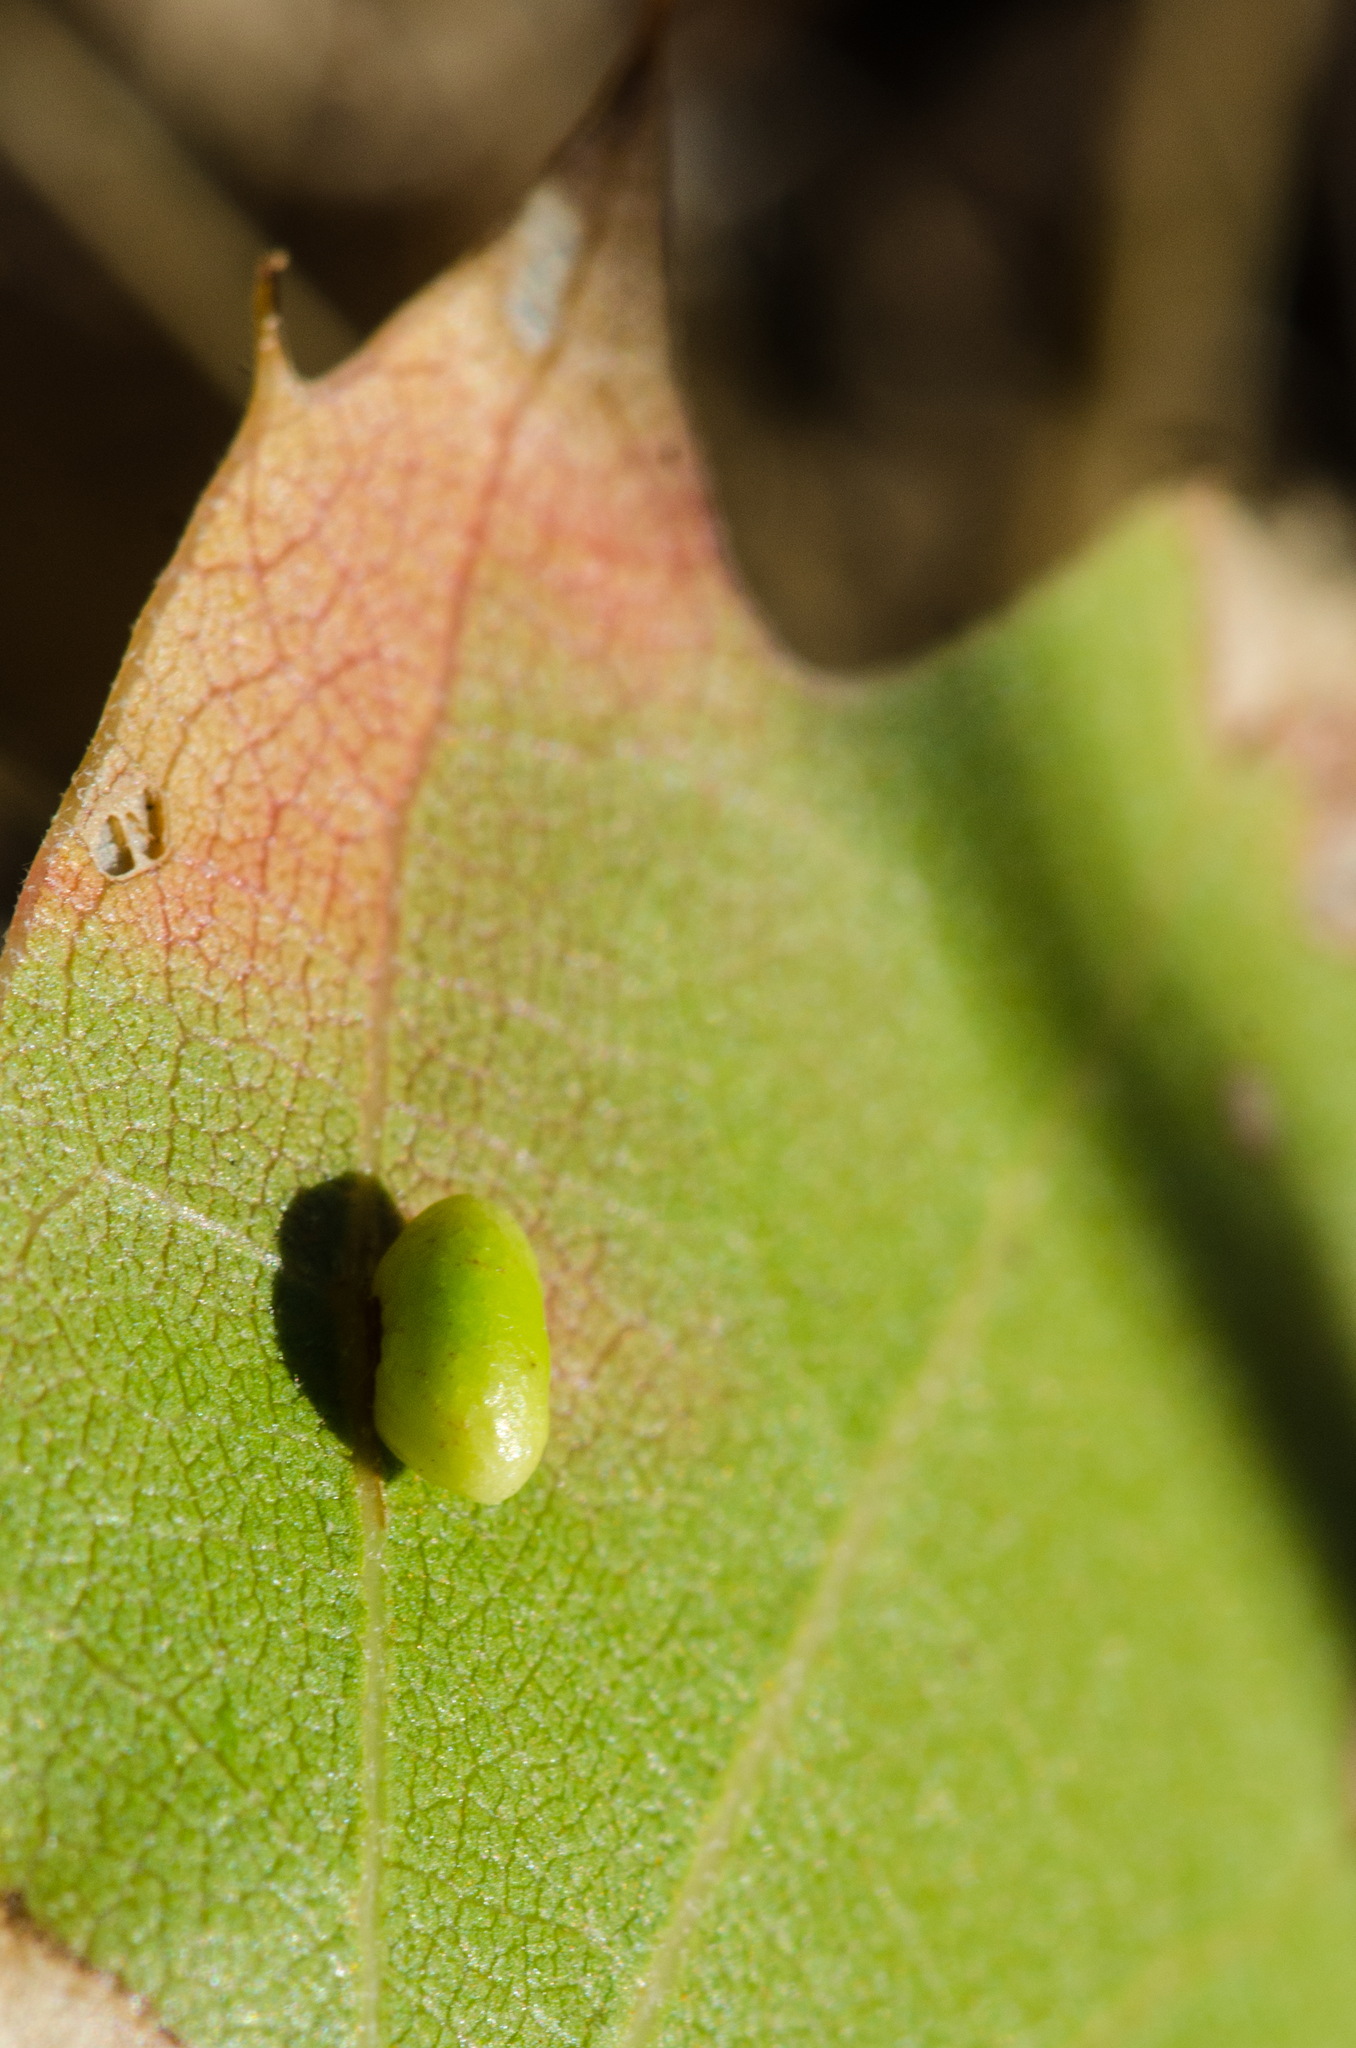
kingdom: Animalia
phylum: Arthropoda
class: Insecta
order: Hymenoptera
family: Cynipidae
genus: Dryocosmus
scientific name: Dryocosmus
